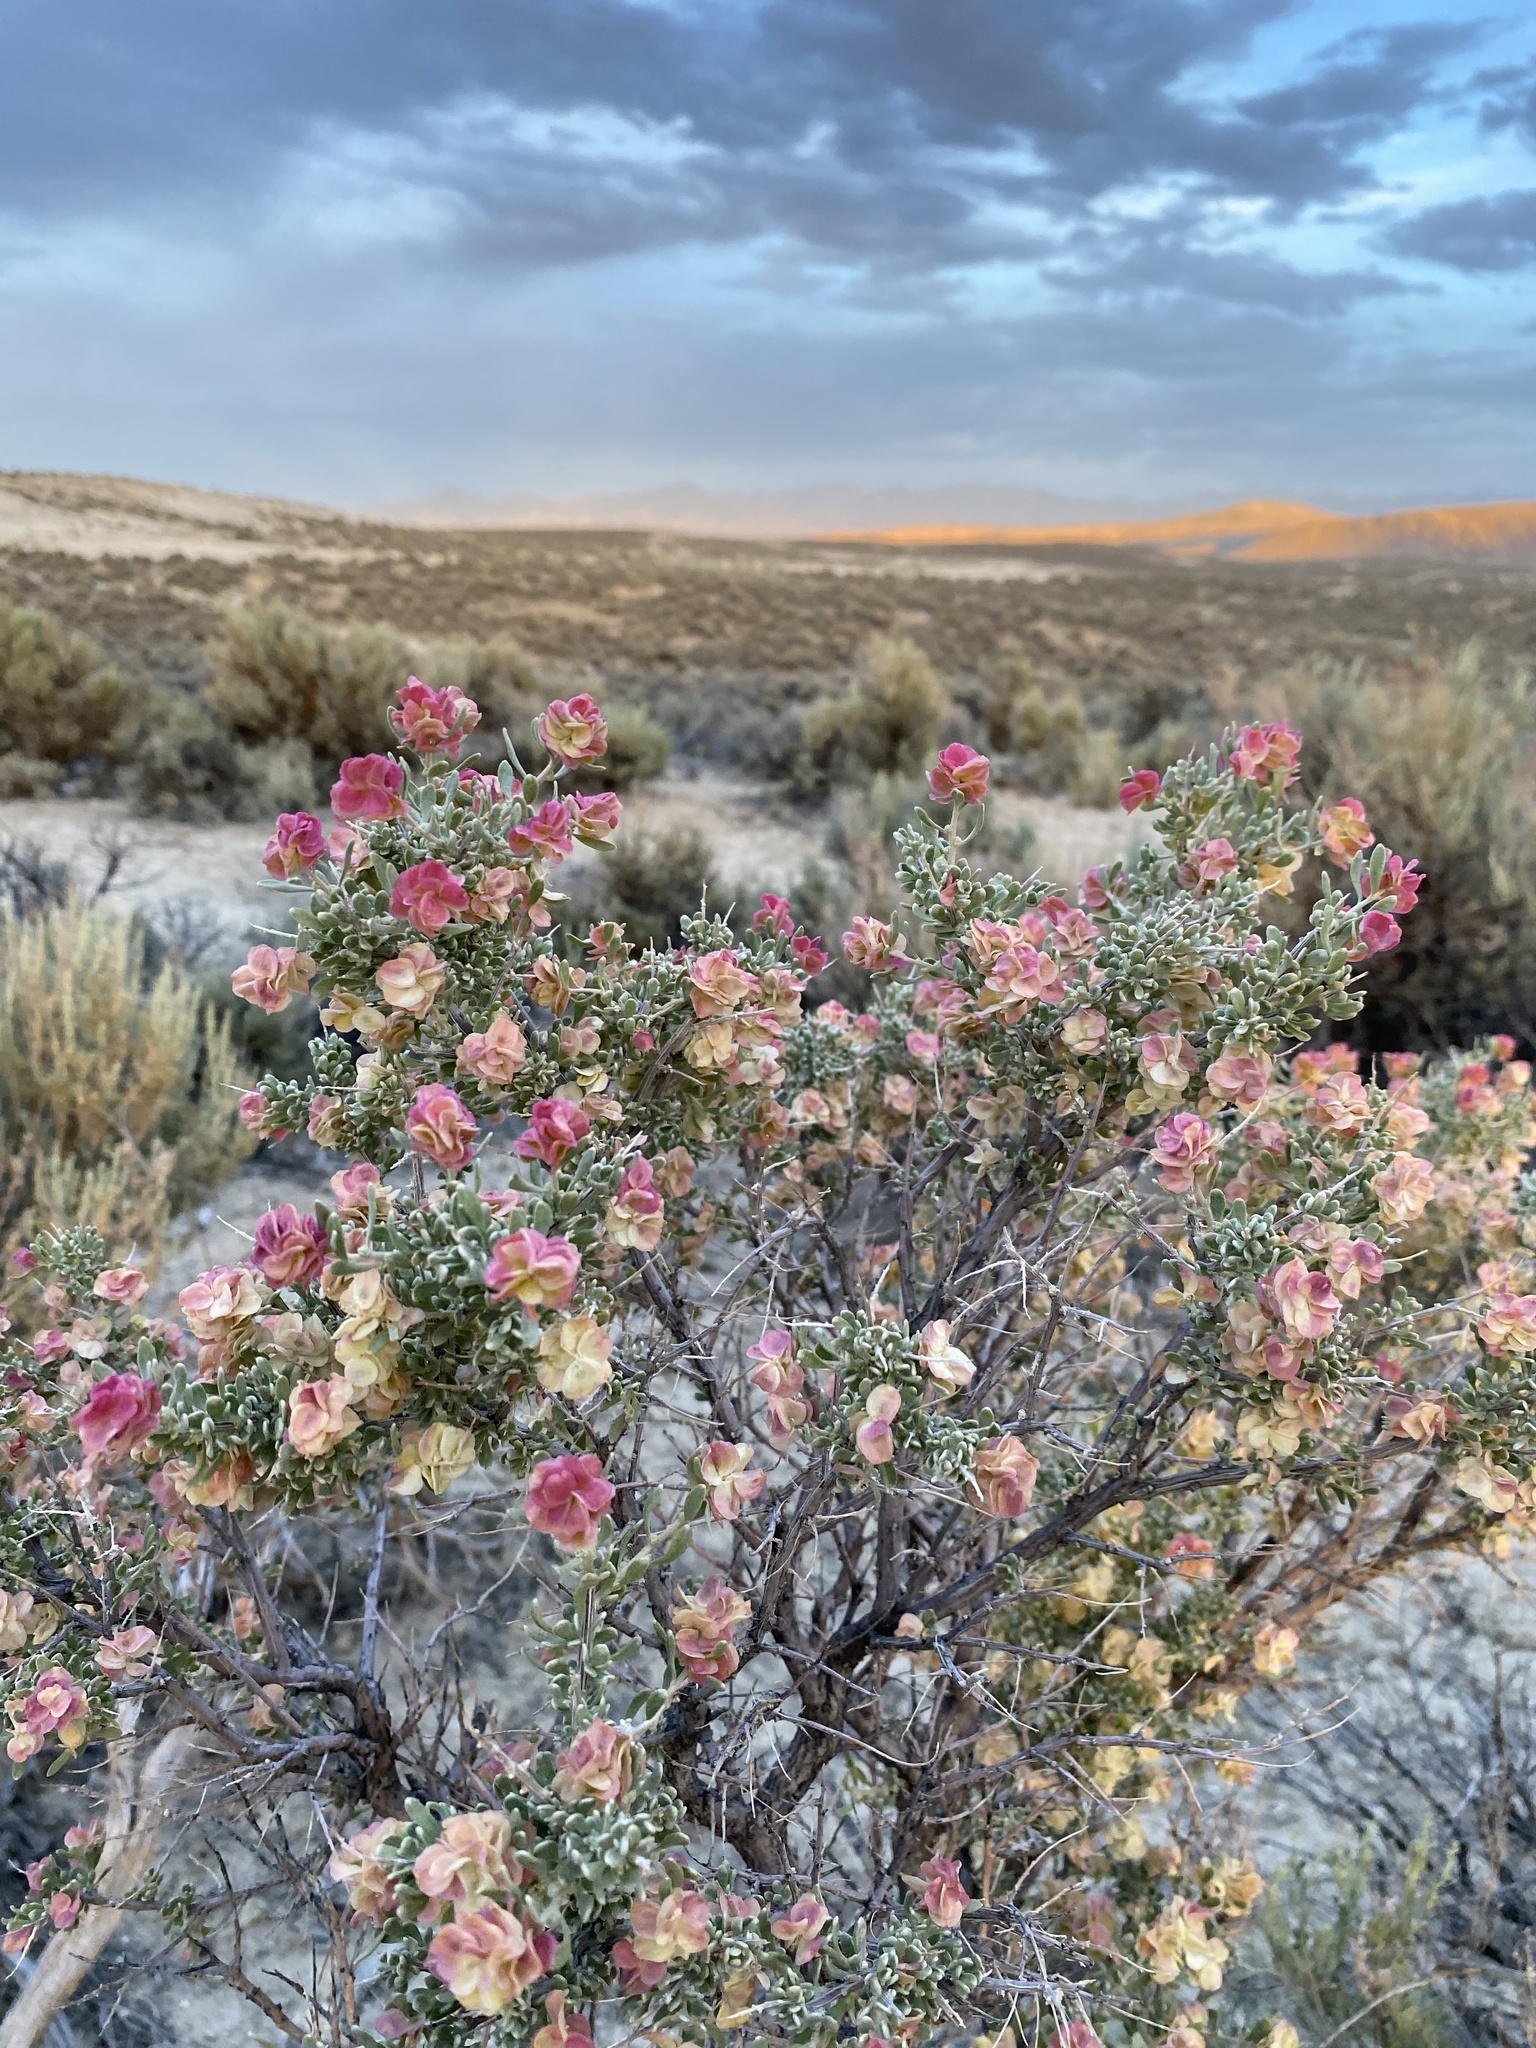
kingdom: Plantae
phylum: Tracheophyta
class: Magnoliopsida
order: Caryophyllales
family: Amaranthaceae
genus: Grayia
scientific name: Grayia spinosa
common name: Spiny hopsage
